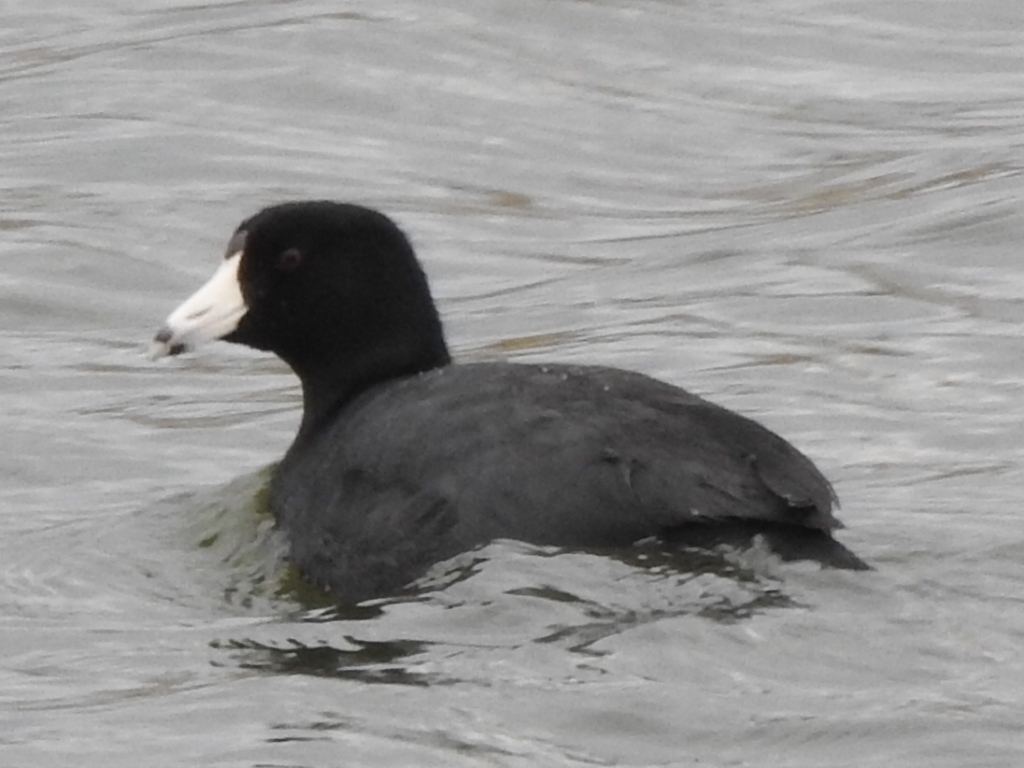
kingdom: Animalia
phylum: Chordata
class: Aves
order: Gruiformes
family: Rallidae
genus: Fulica
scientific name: Fulica americana
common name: American coot
